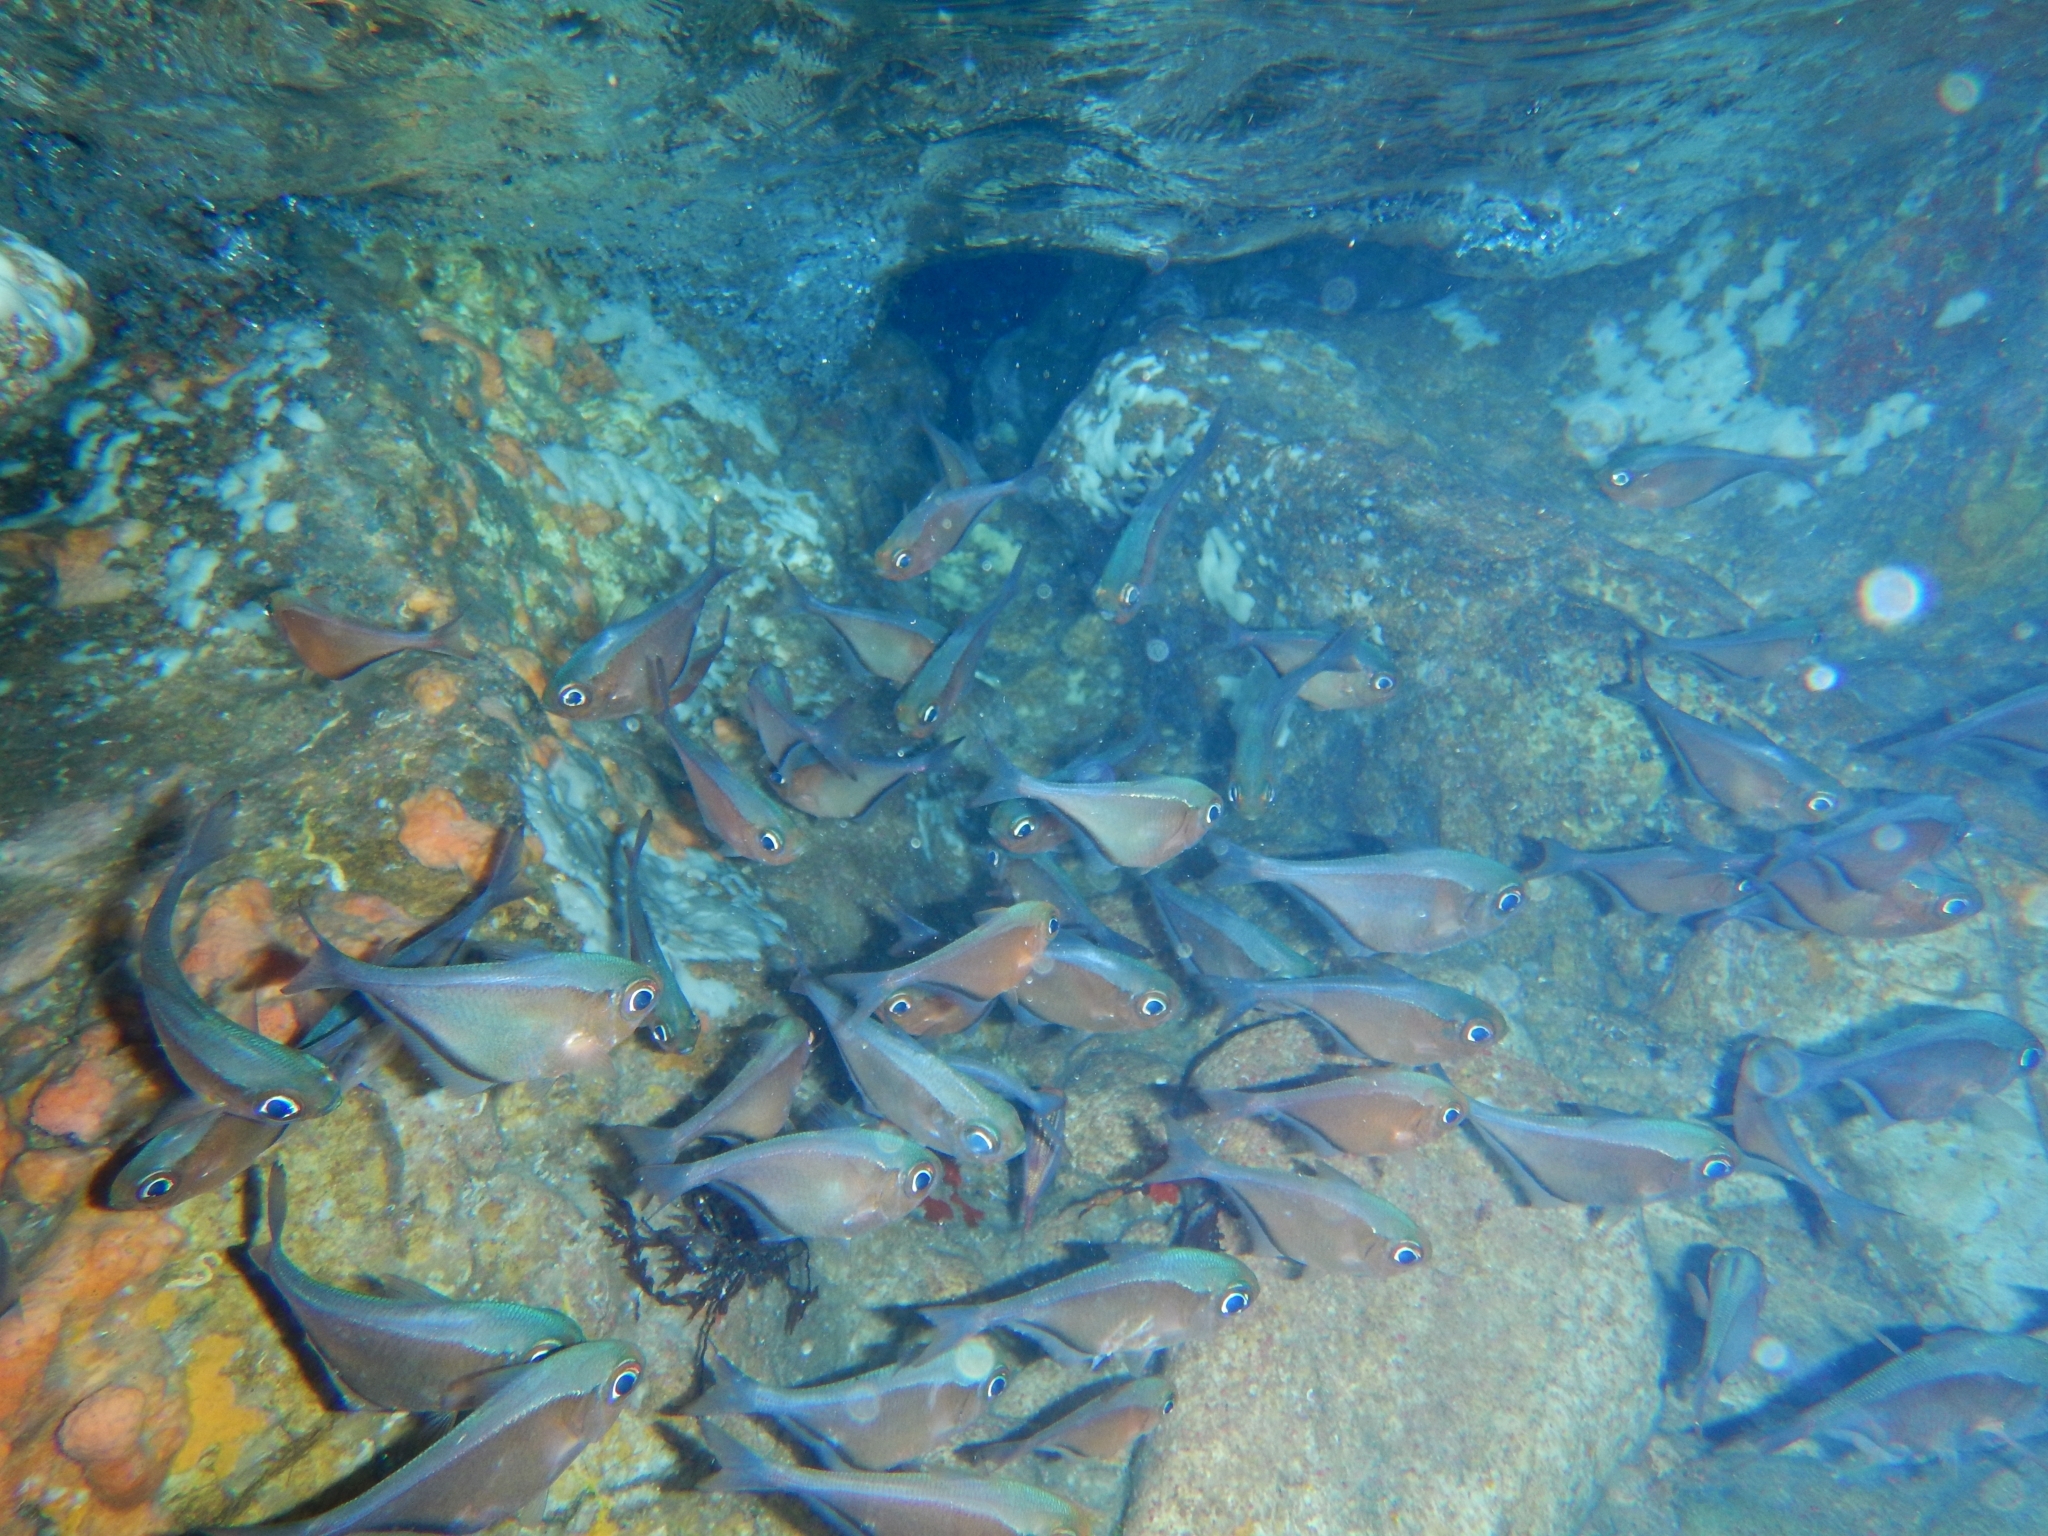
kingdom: Animalia
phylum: Chordata
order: Perciformes
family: Pempheridae
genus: Pempheris
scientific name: Pempheris schomburgkii
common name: Glassy sweeper
